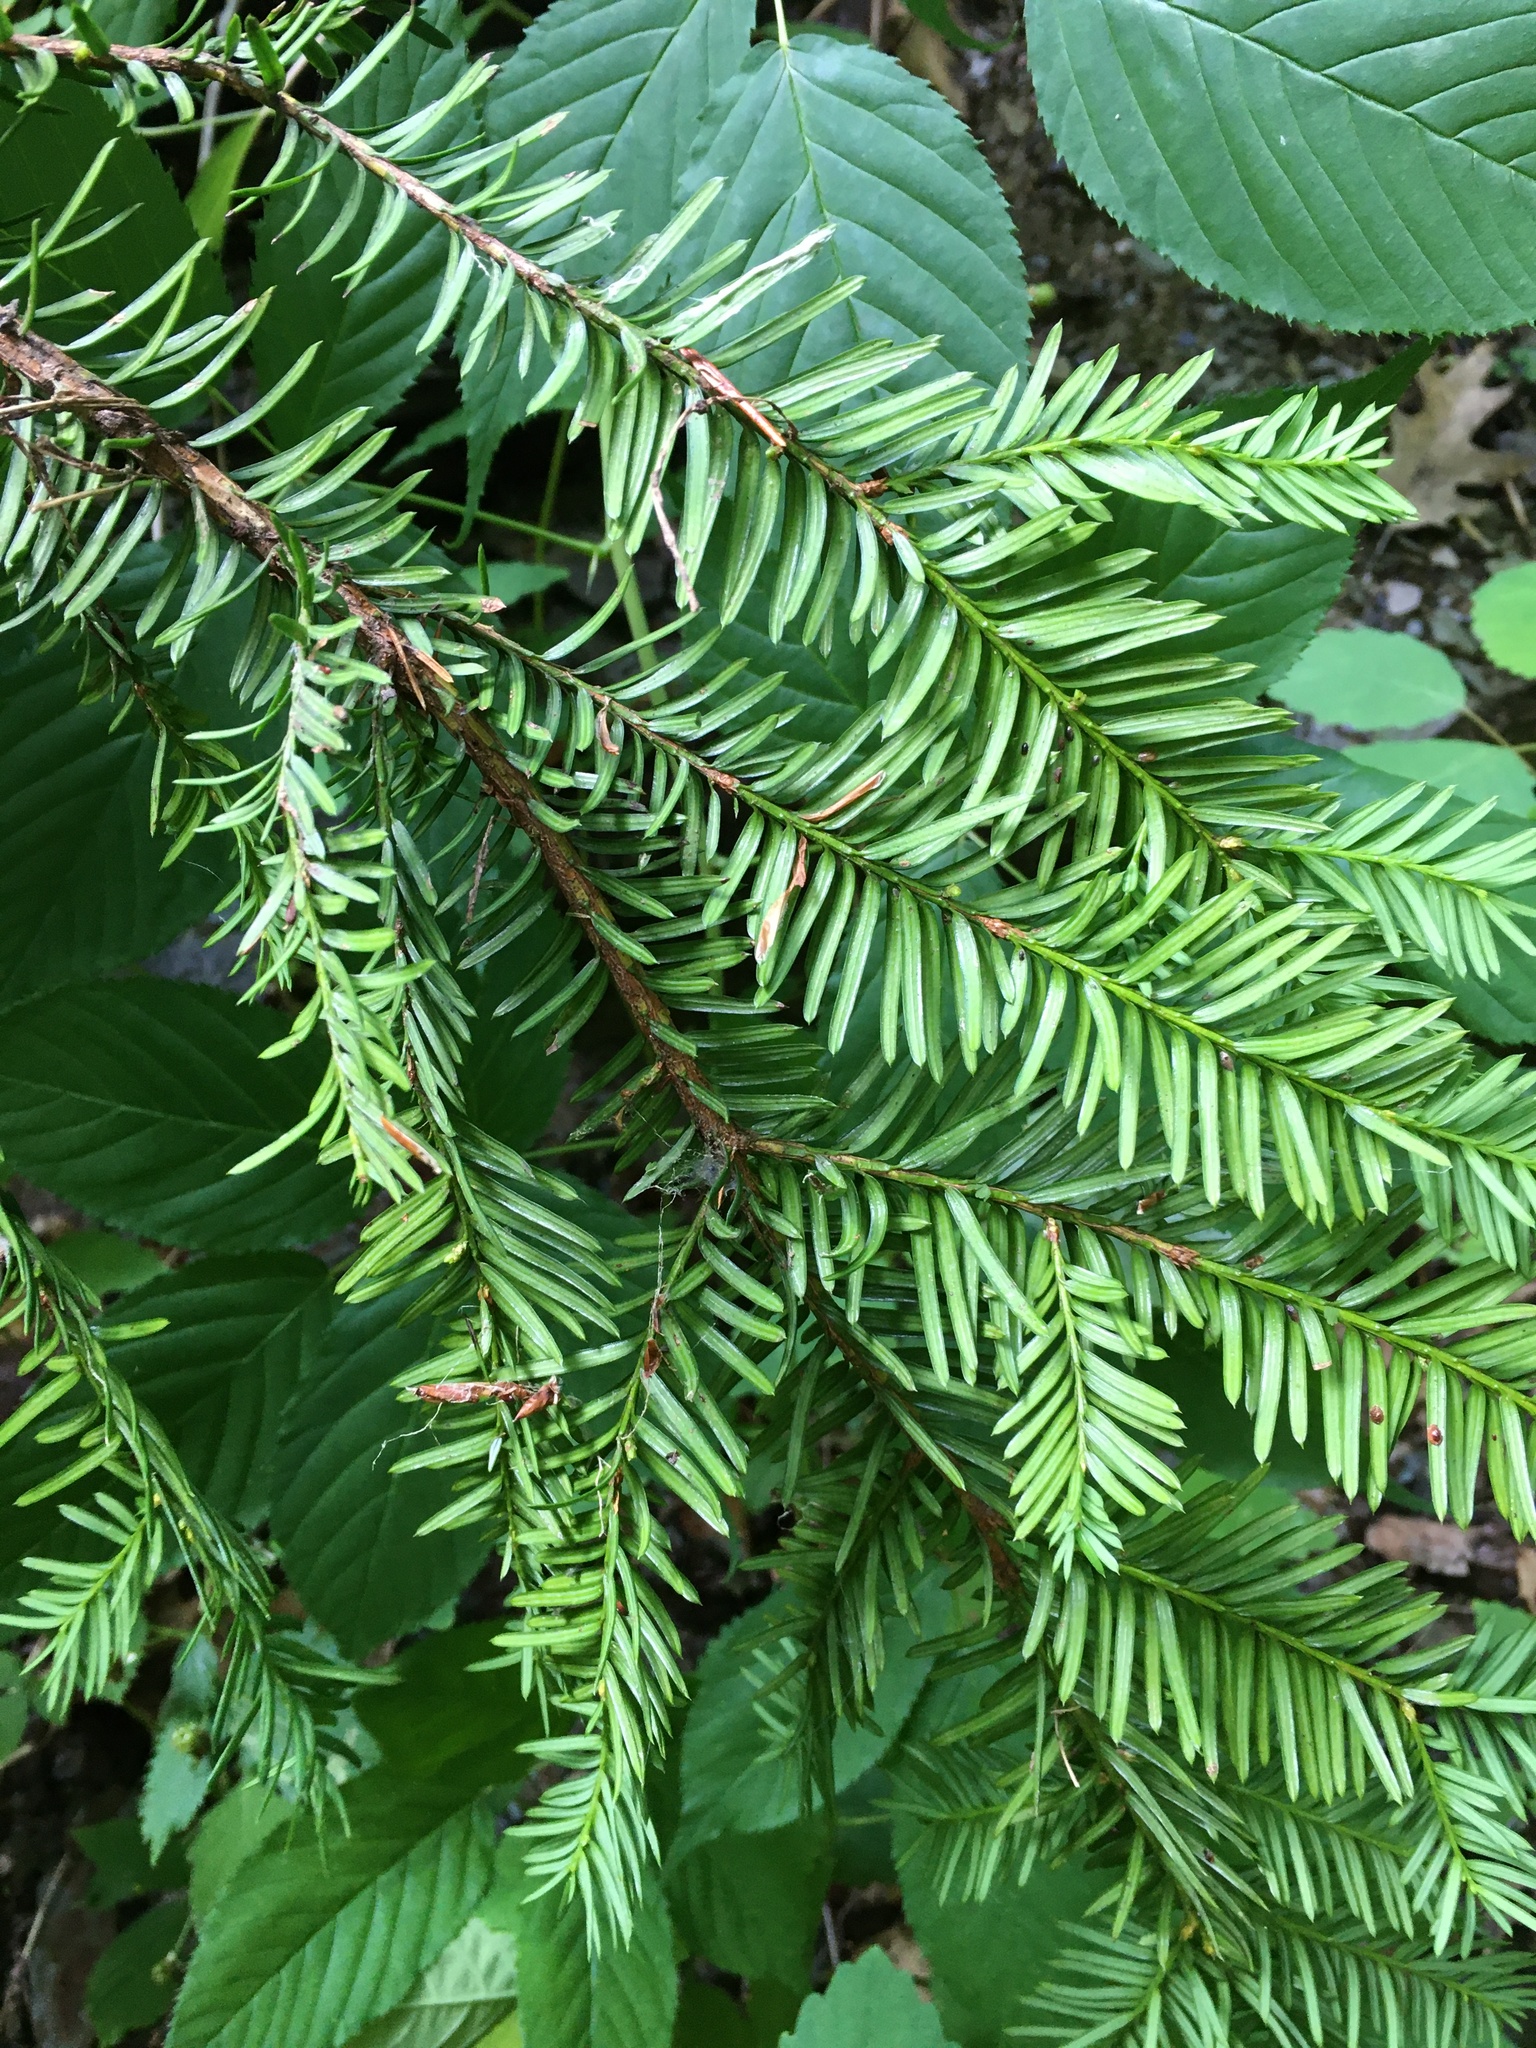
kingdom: Plantae
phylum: Tracheophyta
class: Pinopsida
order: Pinales
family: Taxaceae
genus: Taxus
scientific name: Taxus canadensis
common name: American yew
